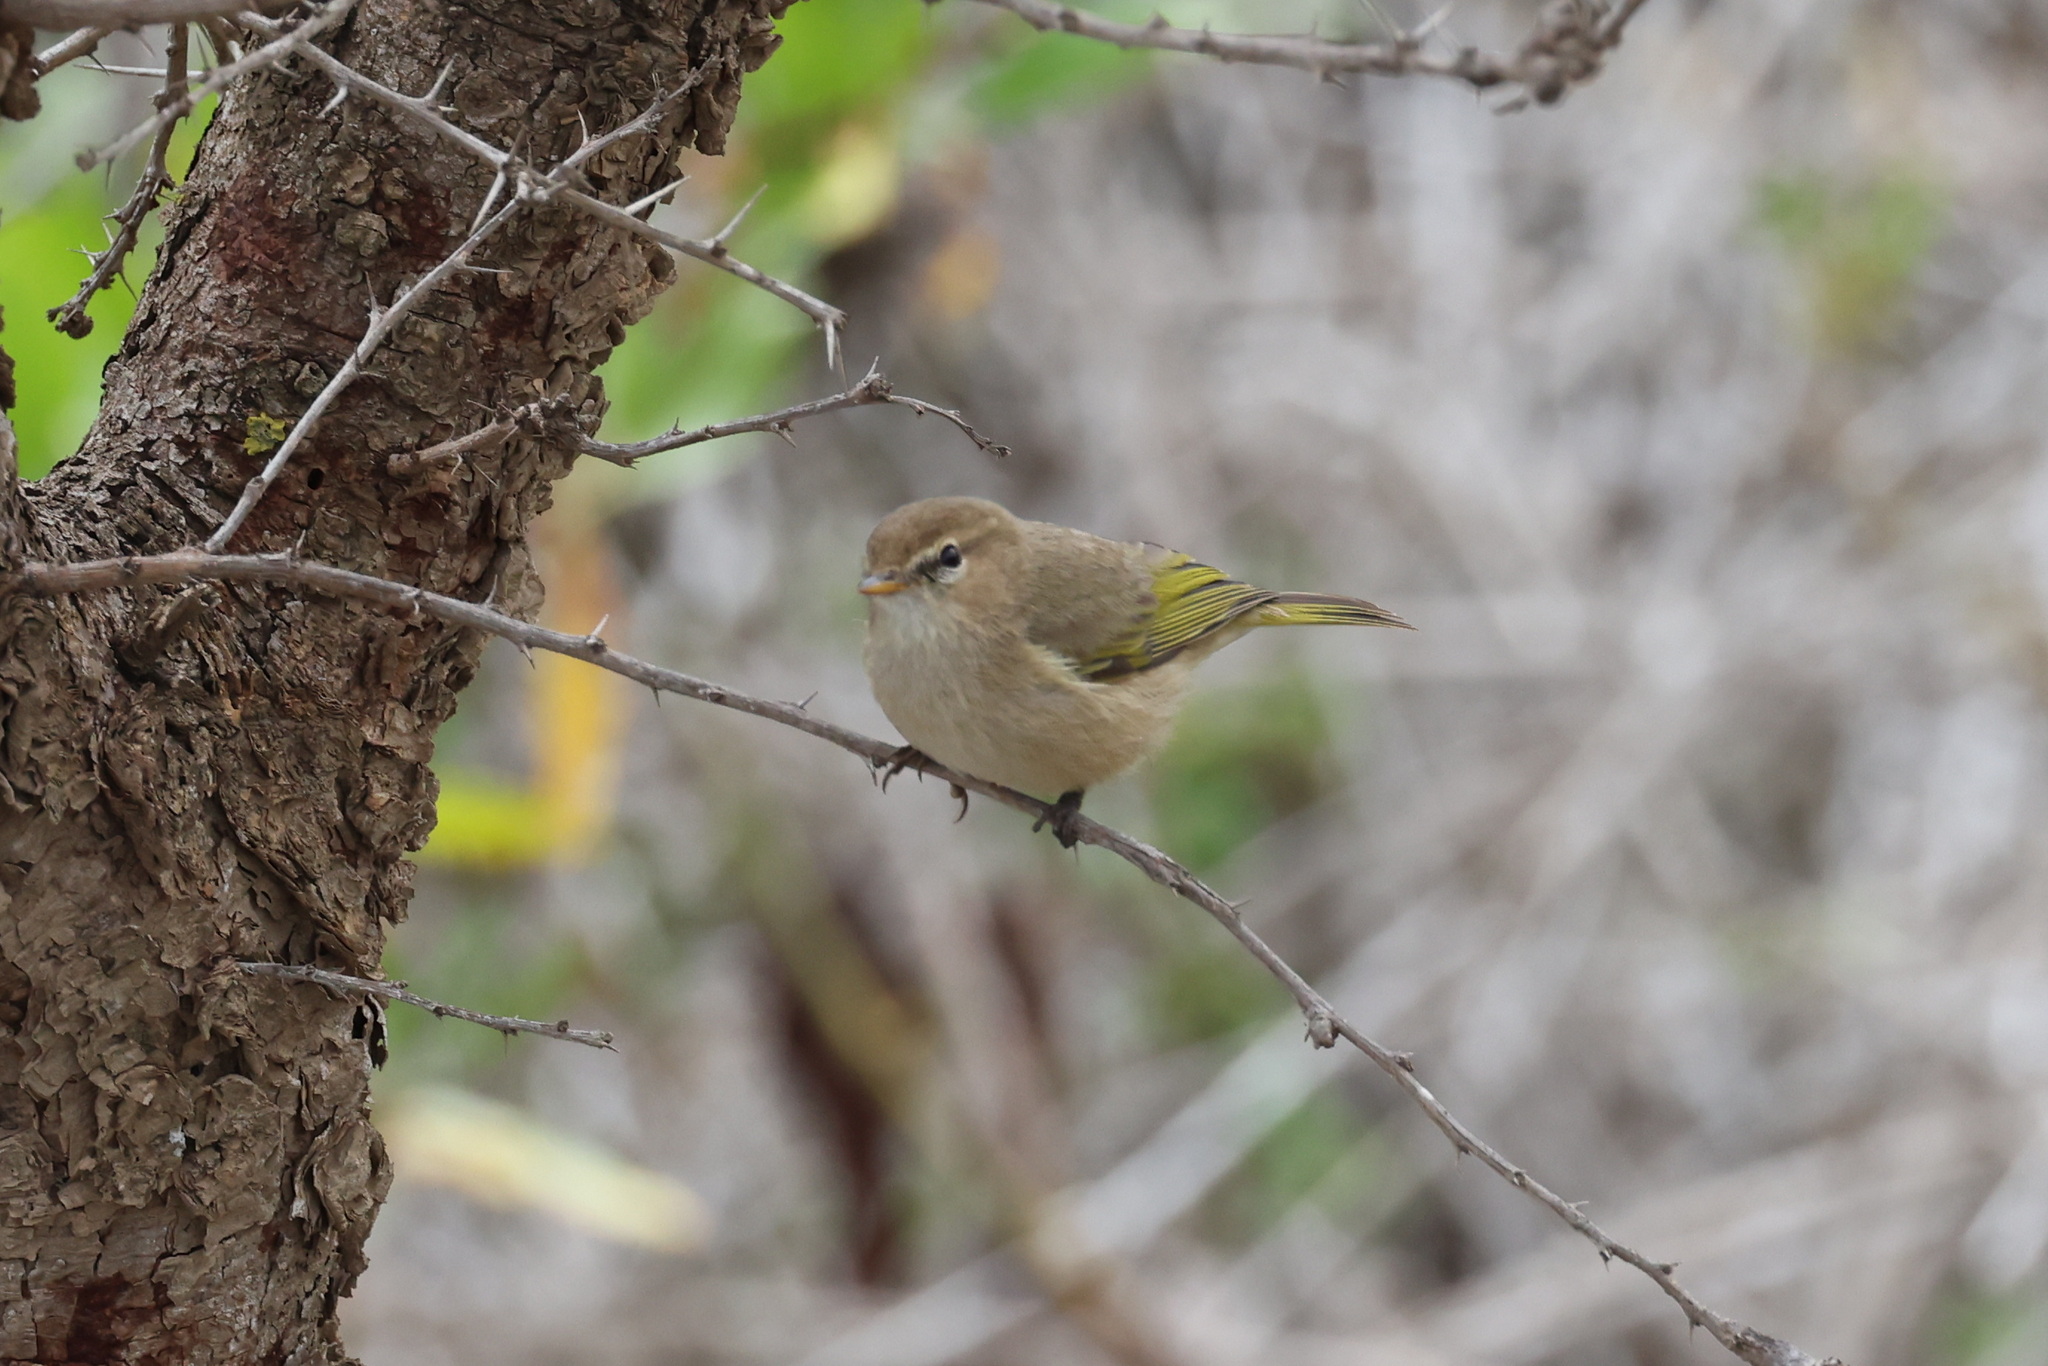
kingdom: Animalia
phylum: Chordata
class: Aves
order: Passeriformes
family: Phylloscopidae
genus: Phylloscopus
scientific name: Phylloscopus umbrovirens
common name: Brown woodland warbler
